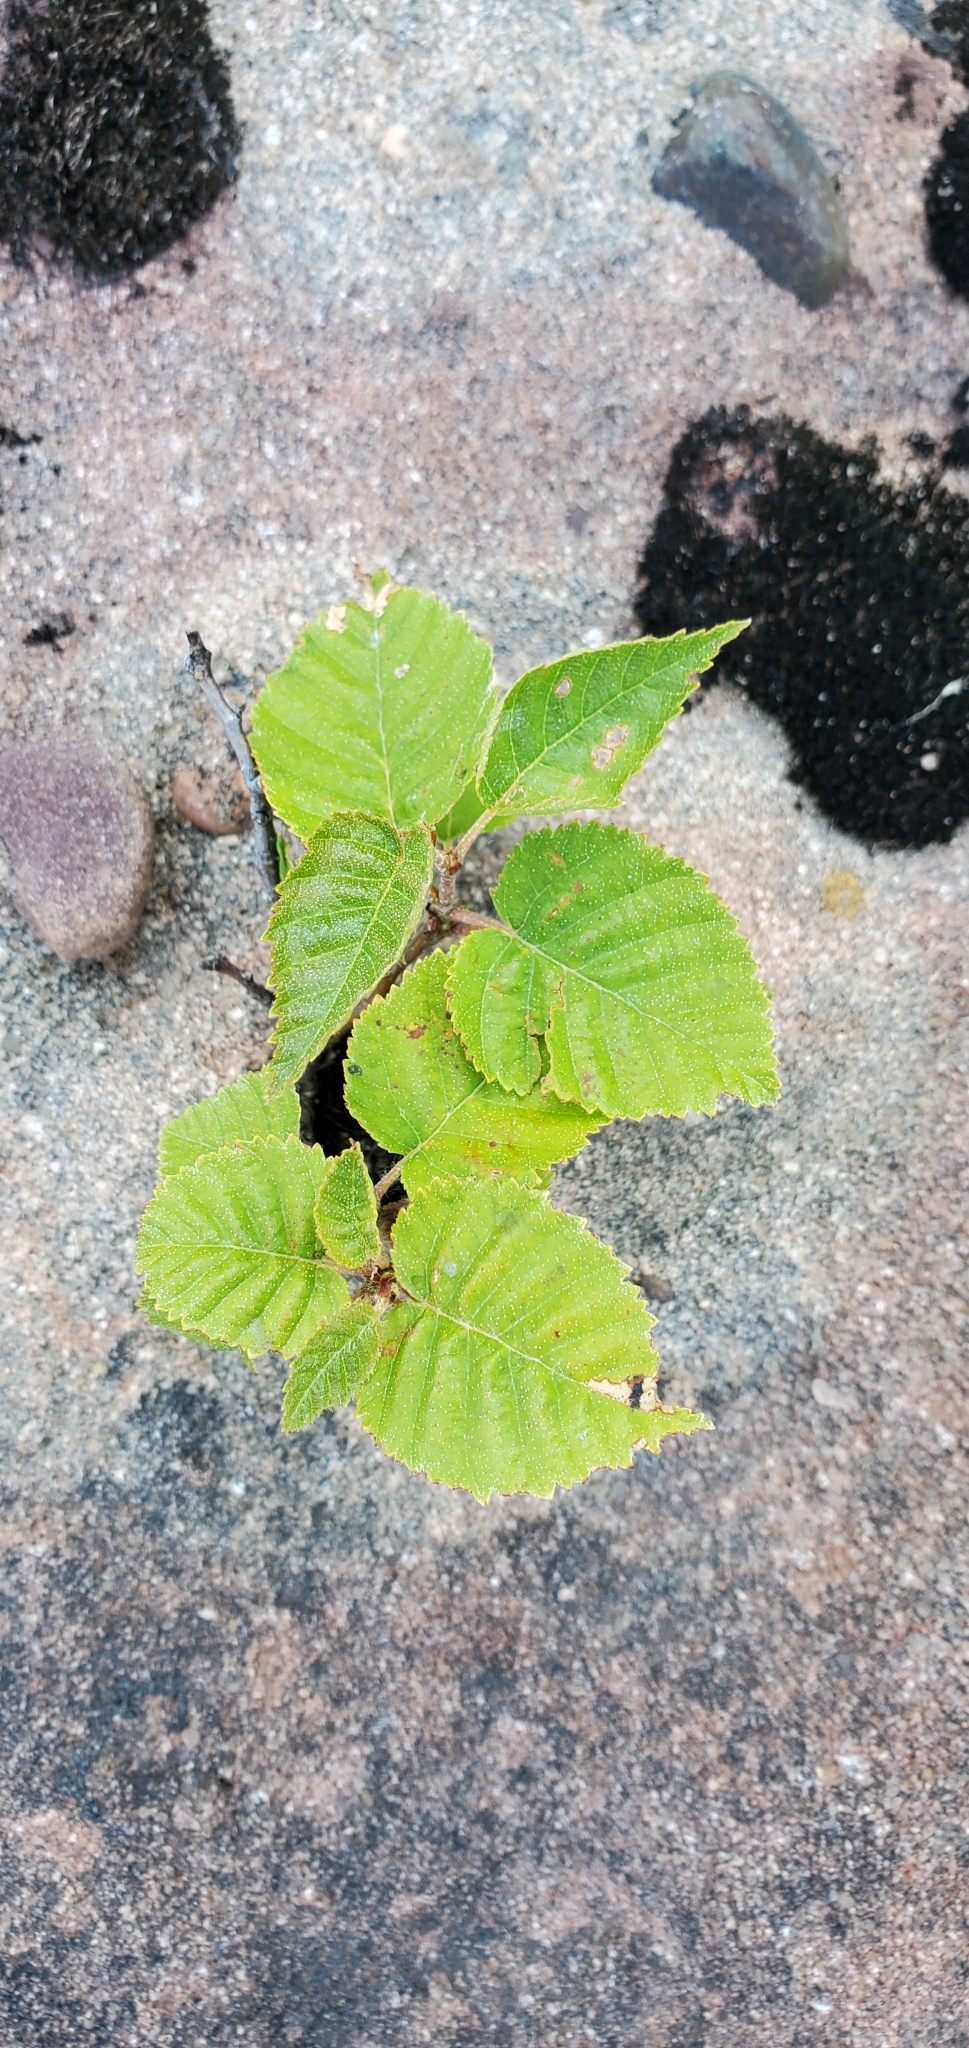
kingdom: Plantae
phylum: Tracheophyta
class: Magnoliopsida
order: Fagales
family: Betulaceae
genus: Betula
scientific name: Betula cordifolia
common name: Mountain white birch
